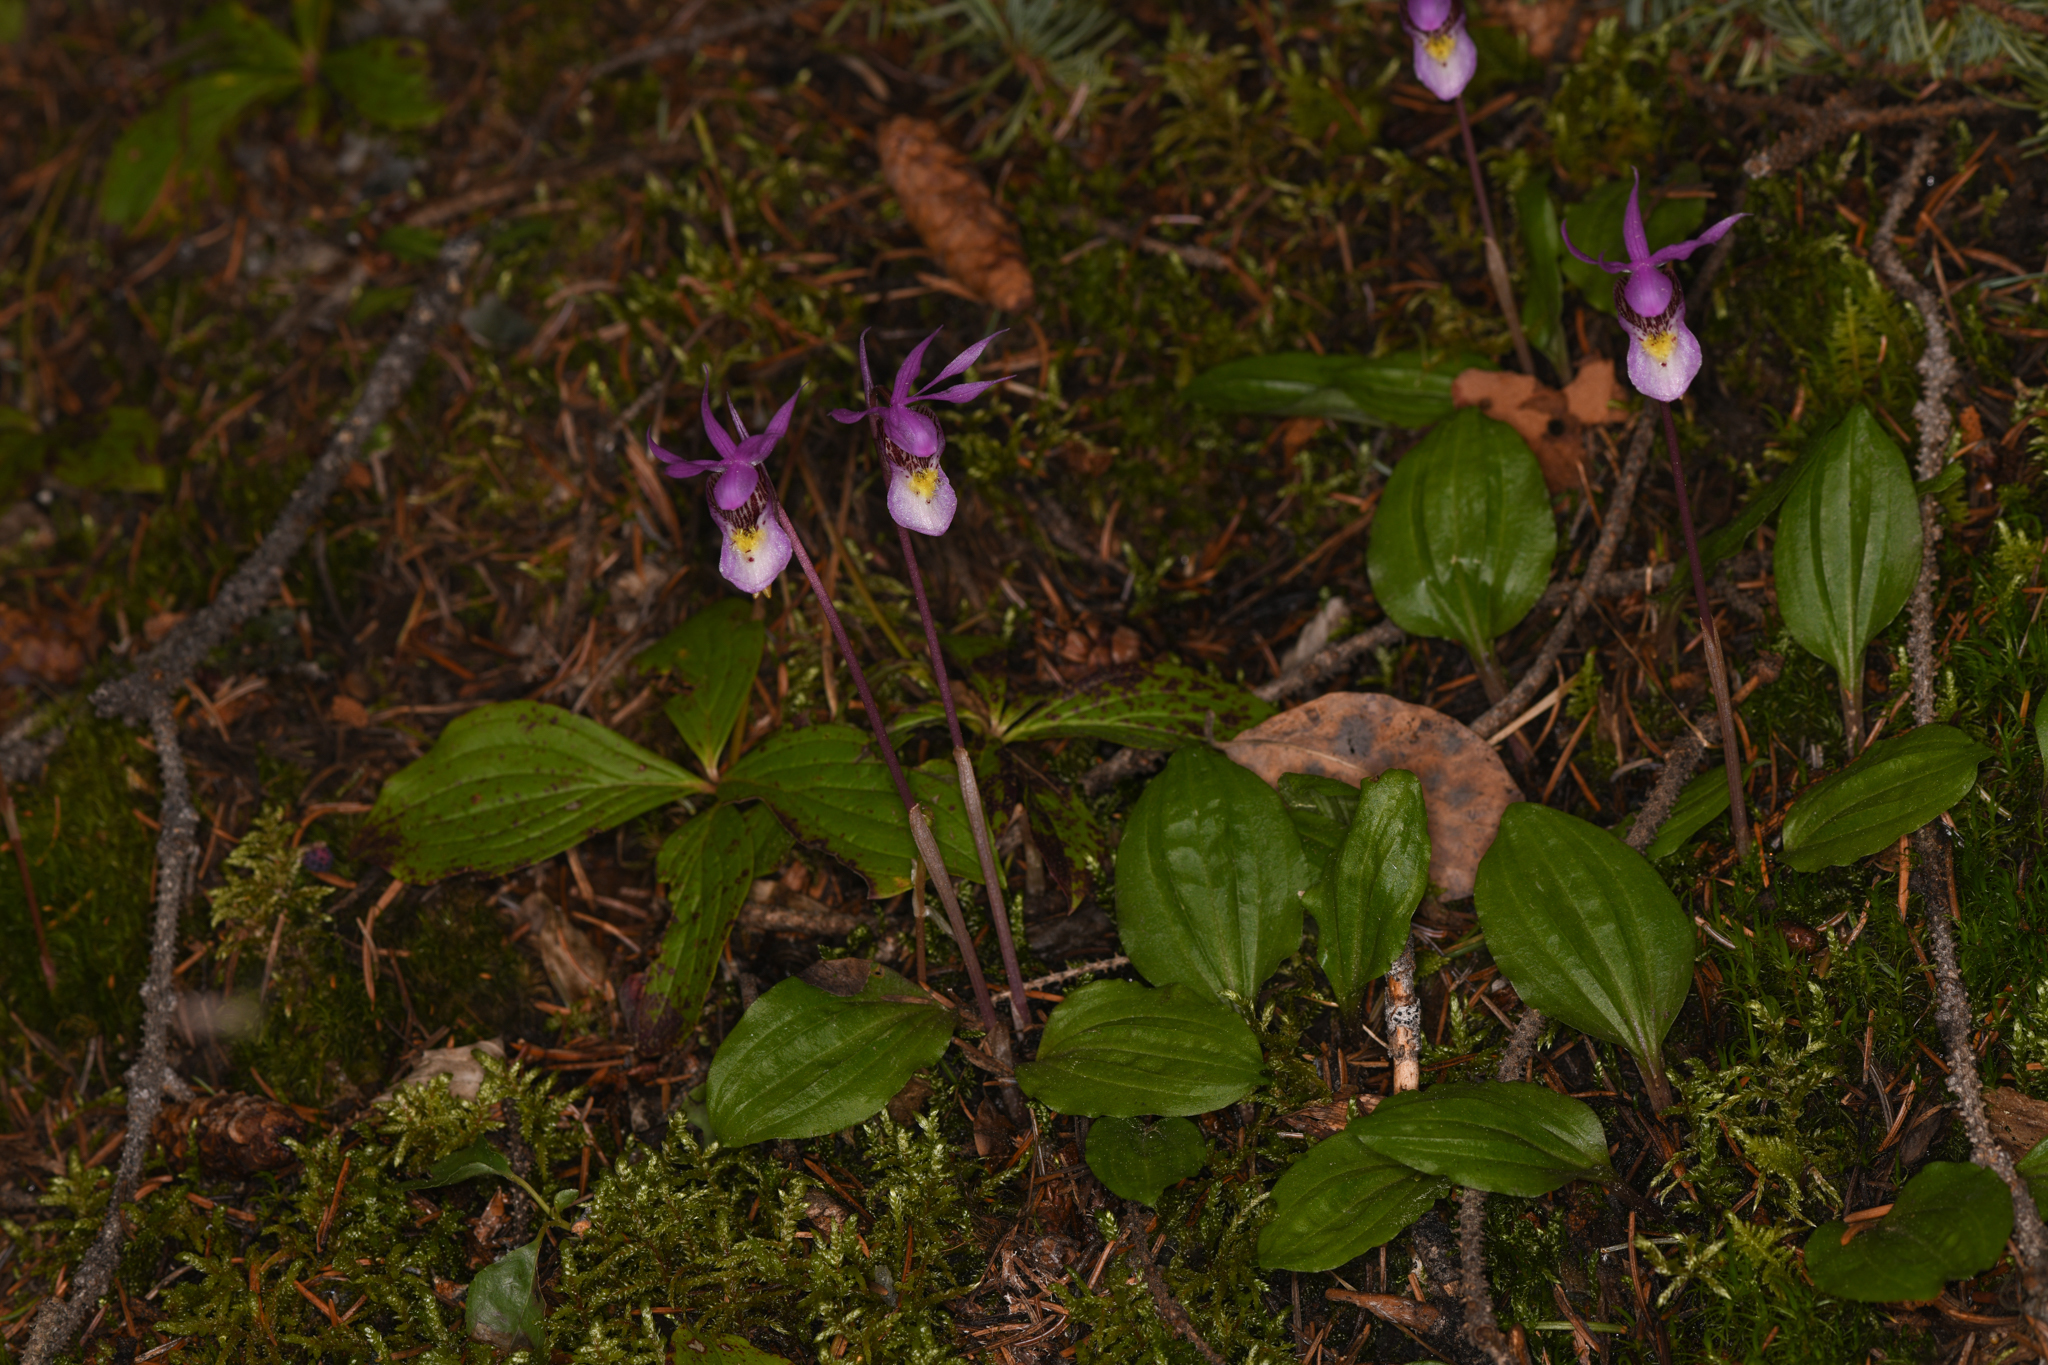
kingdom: Plantae
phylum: Tracheophyta
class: Liliopsida
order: Asparagales
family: Orchidaceae
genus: Calypso
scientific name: Calypso bulbosa
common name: Calypso
